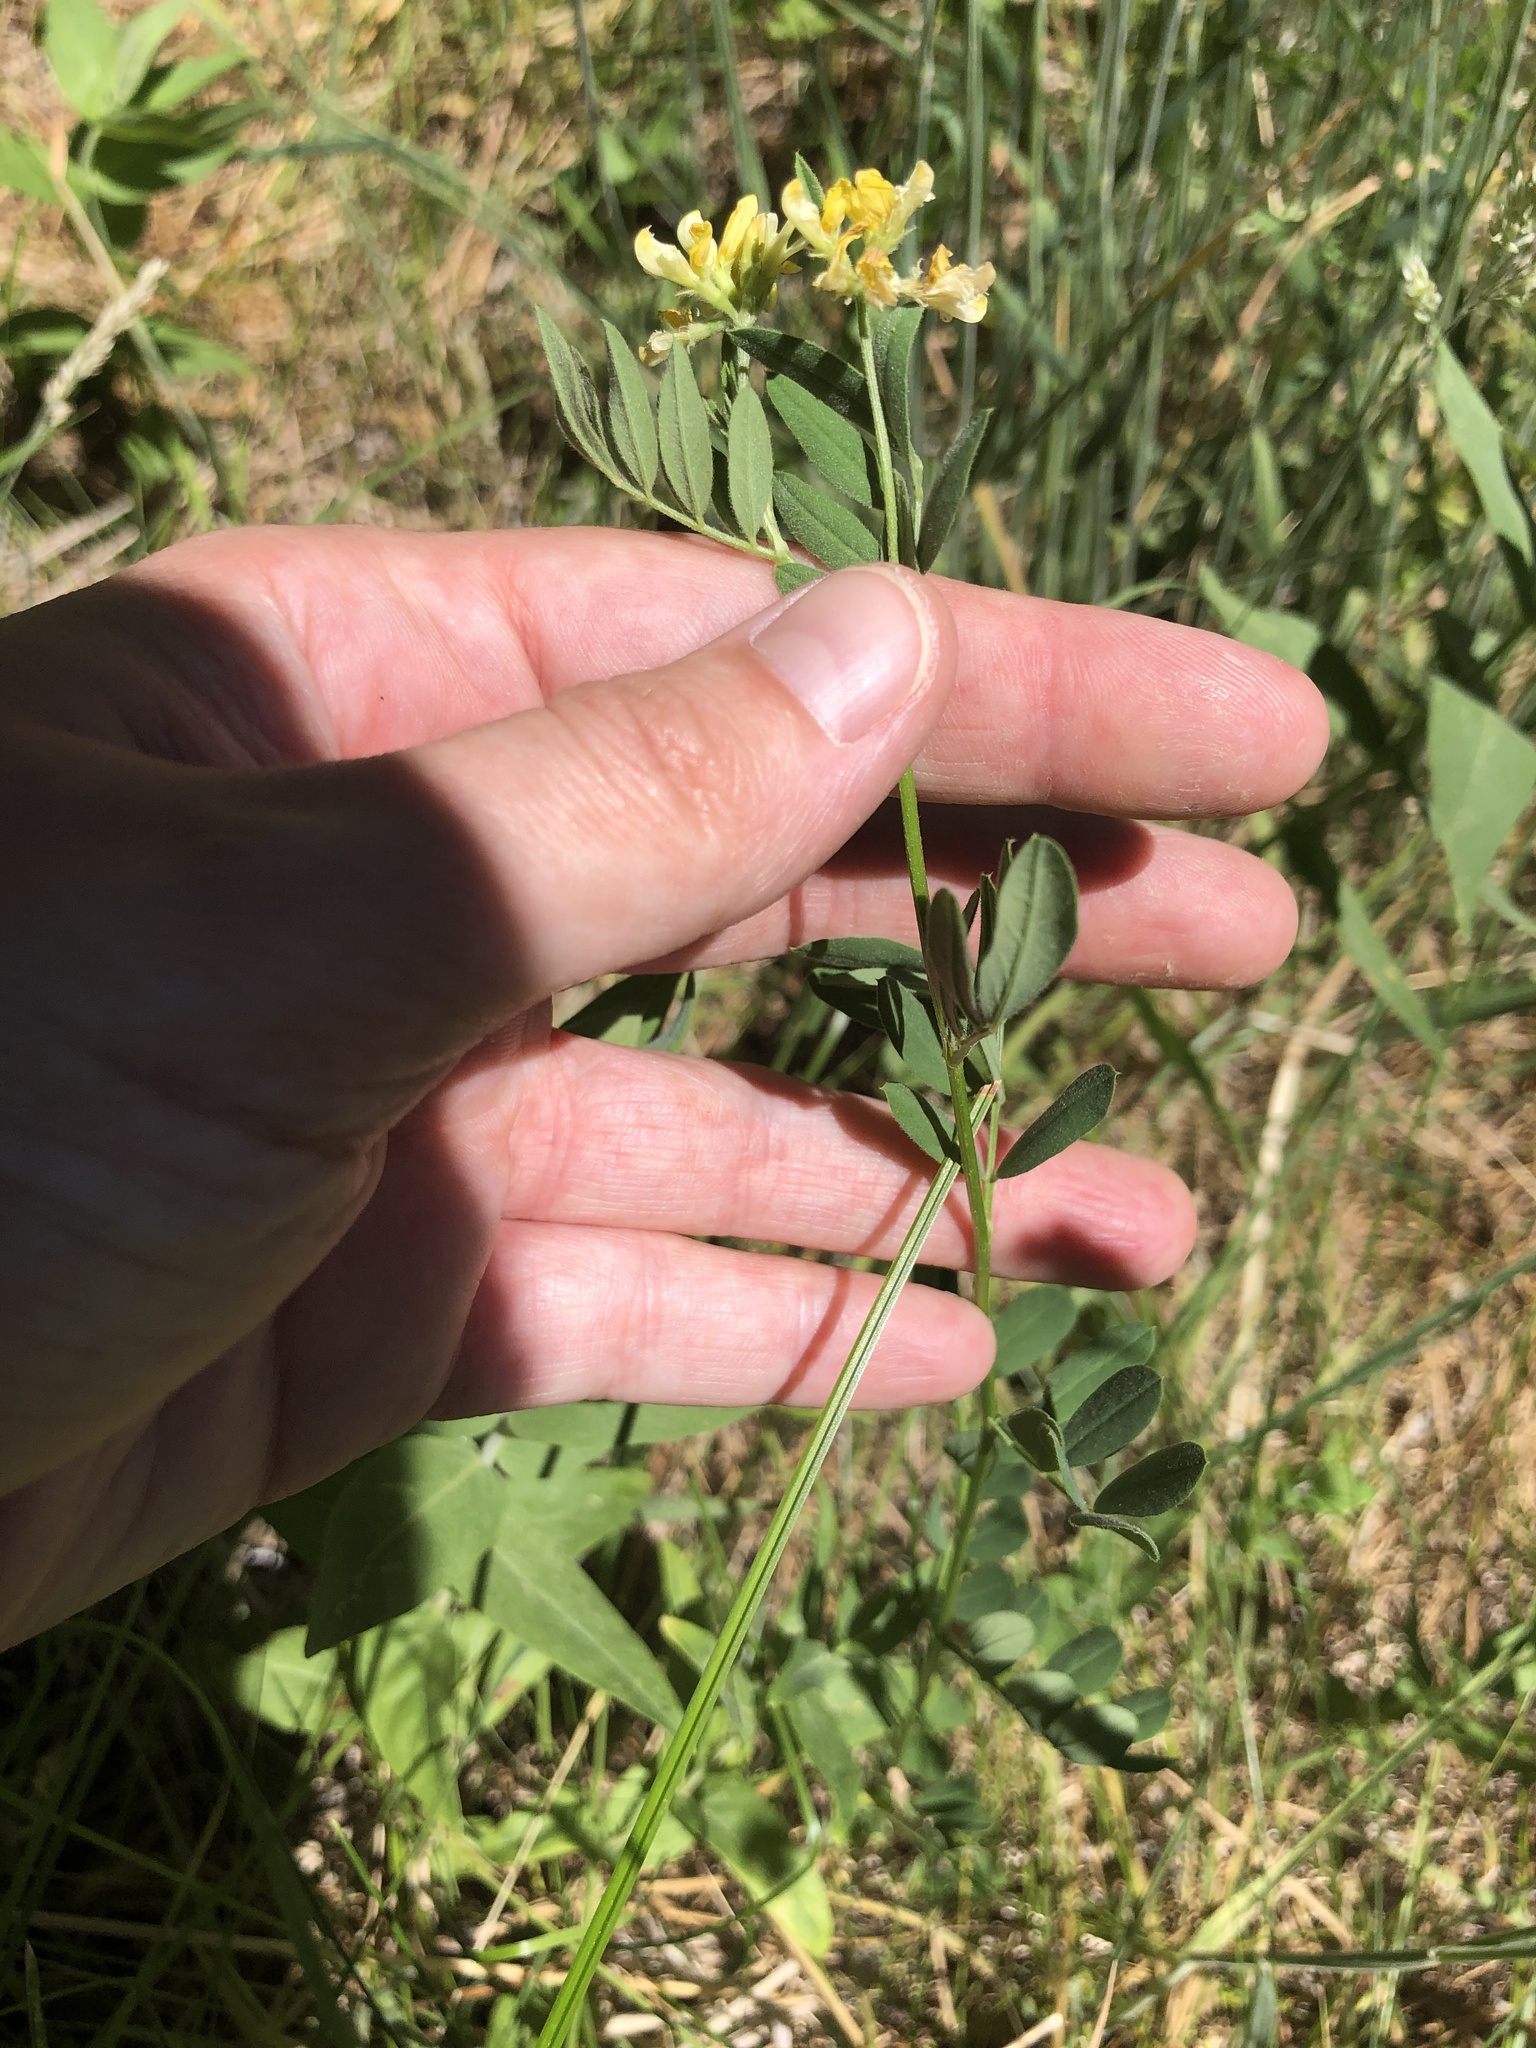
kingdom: Plantae
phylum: Tracheophyta
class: Magnoliopsida
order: Fabales
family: Fabaceae
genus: Hosackia
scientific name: Hosackia oblongifolia
